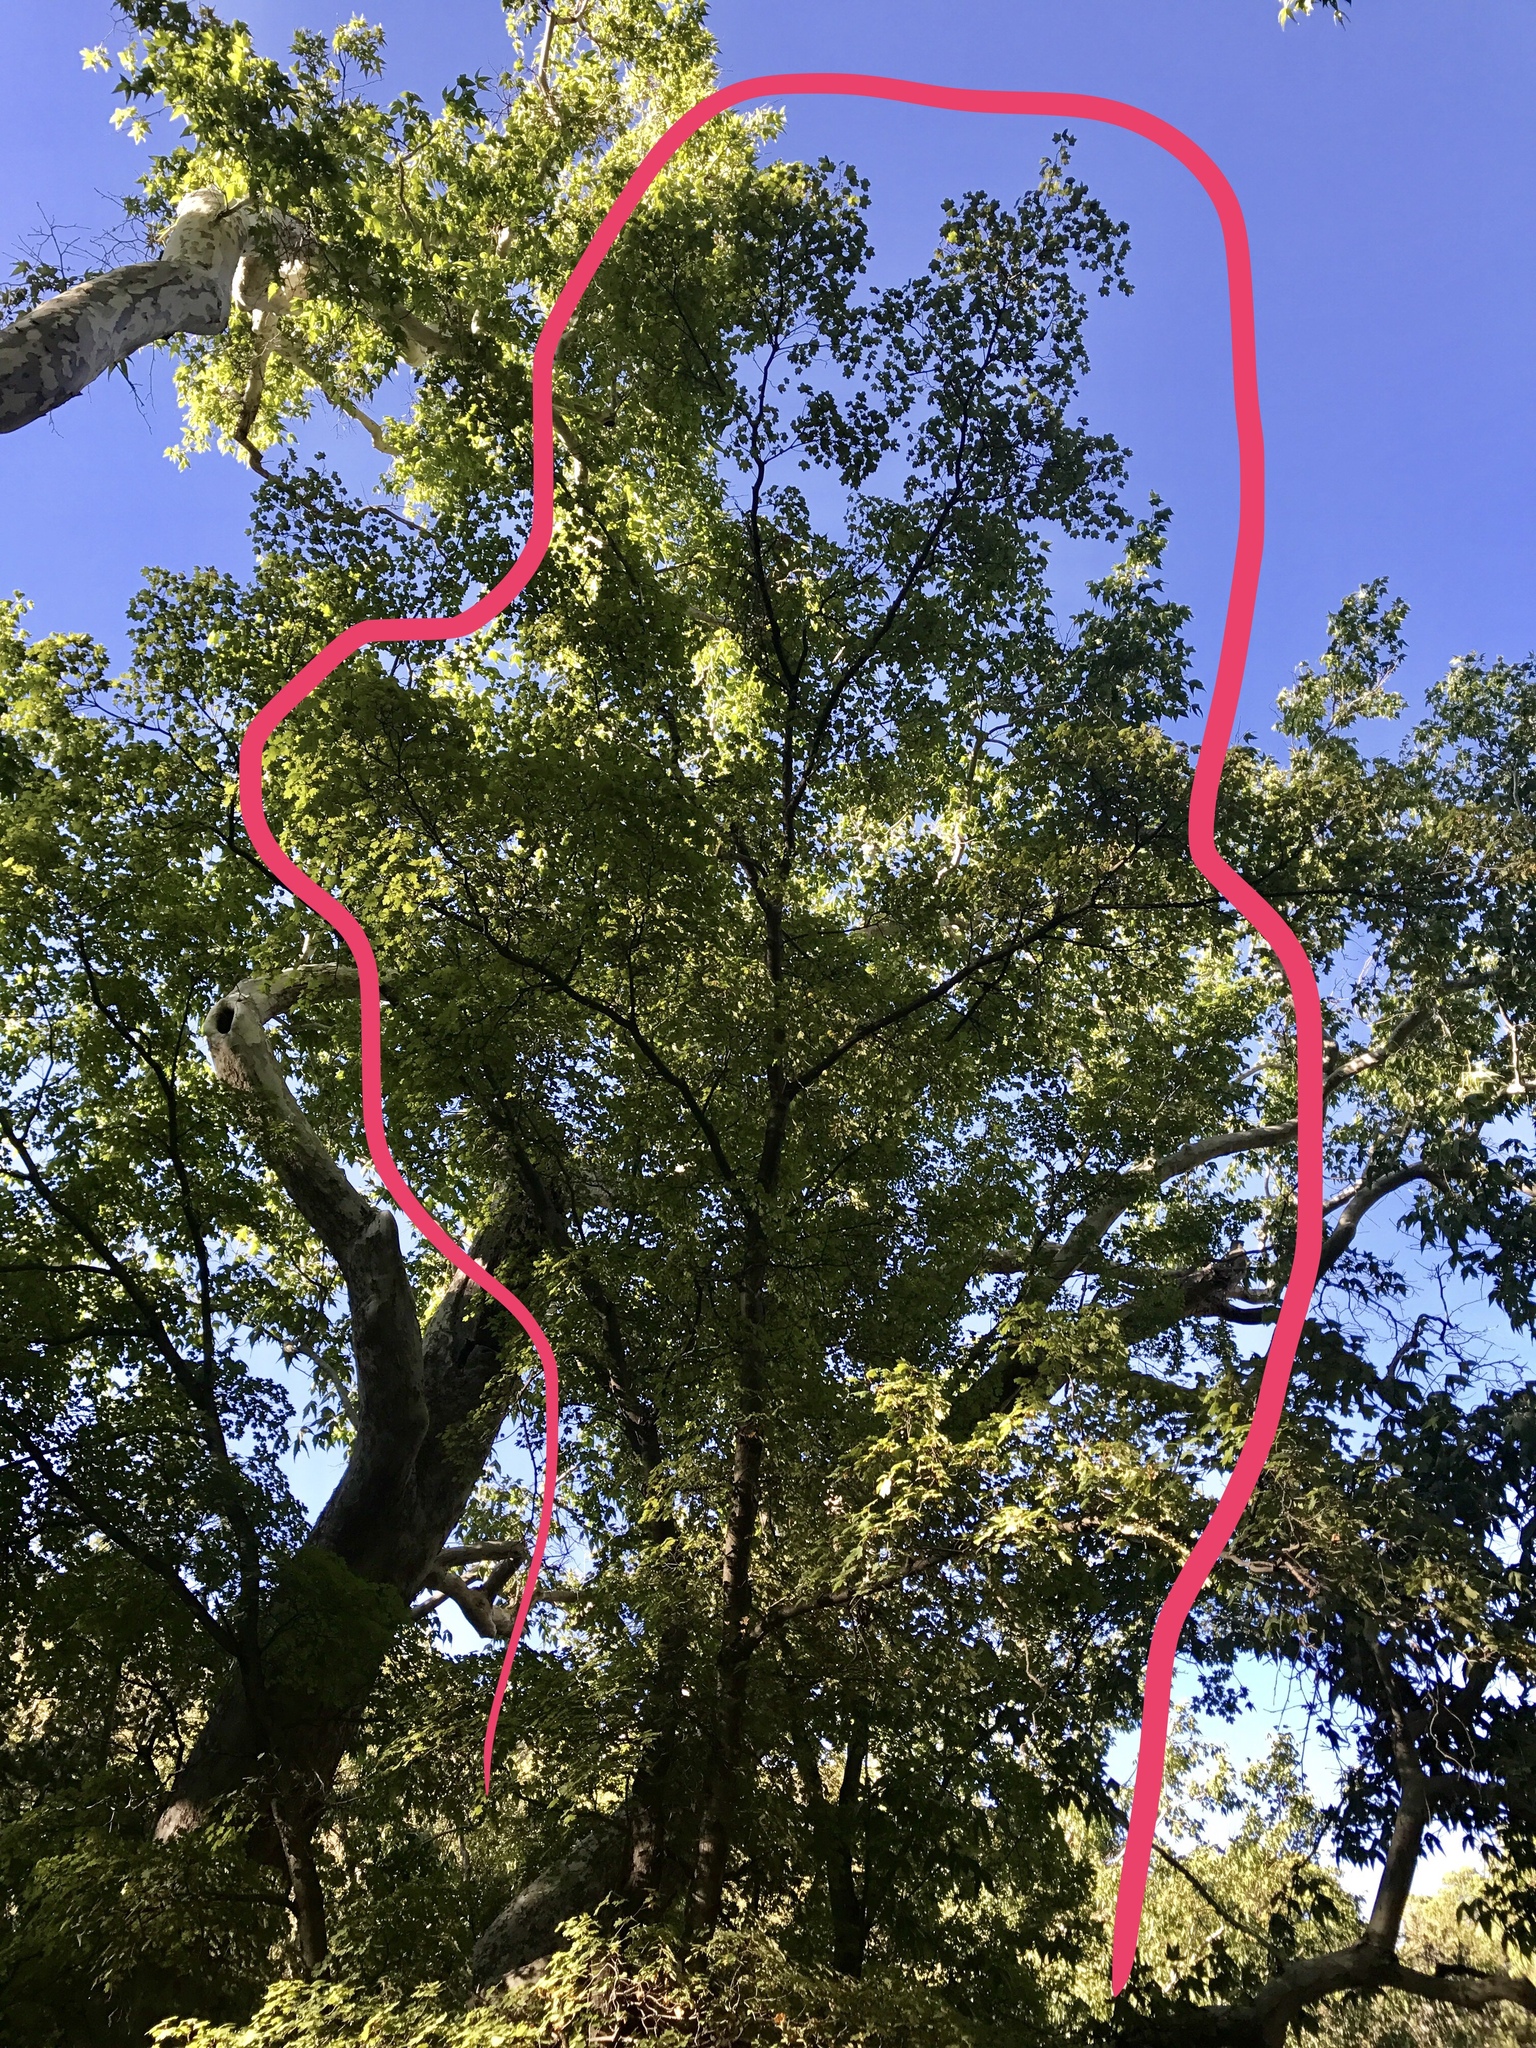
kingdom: Plantae
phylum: Tracheophyta
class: Magnoliopsida
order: Sapindales
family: Sapindaceae
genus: Acer
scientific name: Acer grandidentatum
